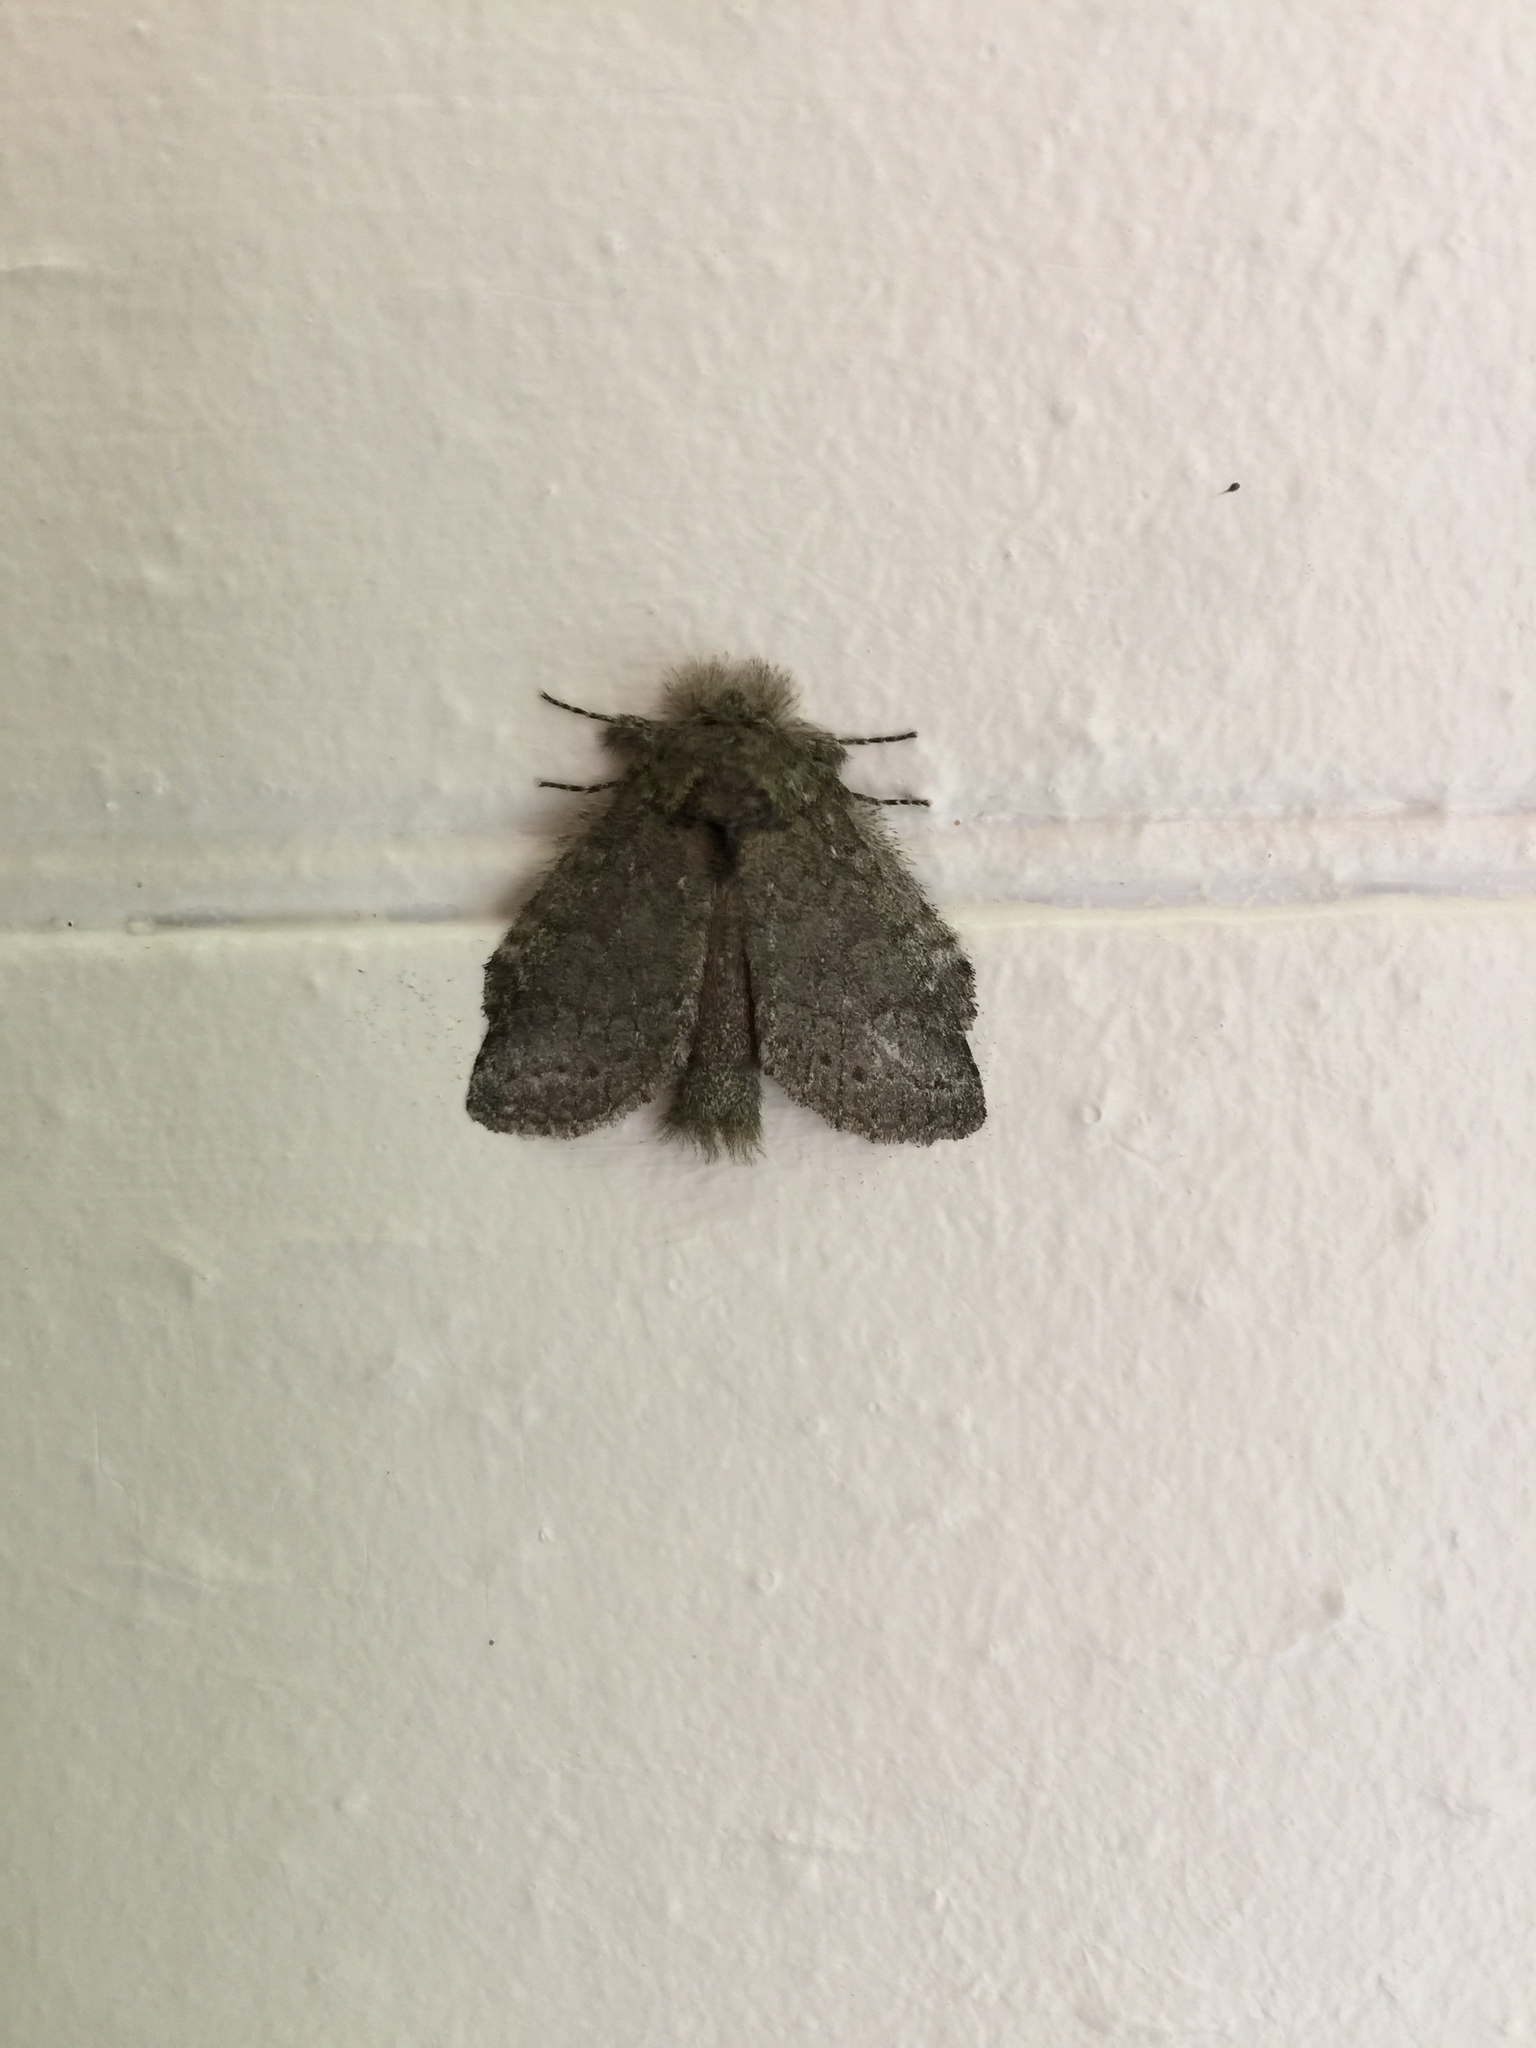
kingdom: Animalia
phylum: Arthropoda
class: Insecta
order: Lepidoptera
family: Notodontidae
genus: Disphragis
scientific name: Disphragis Cecrita guttivitta
